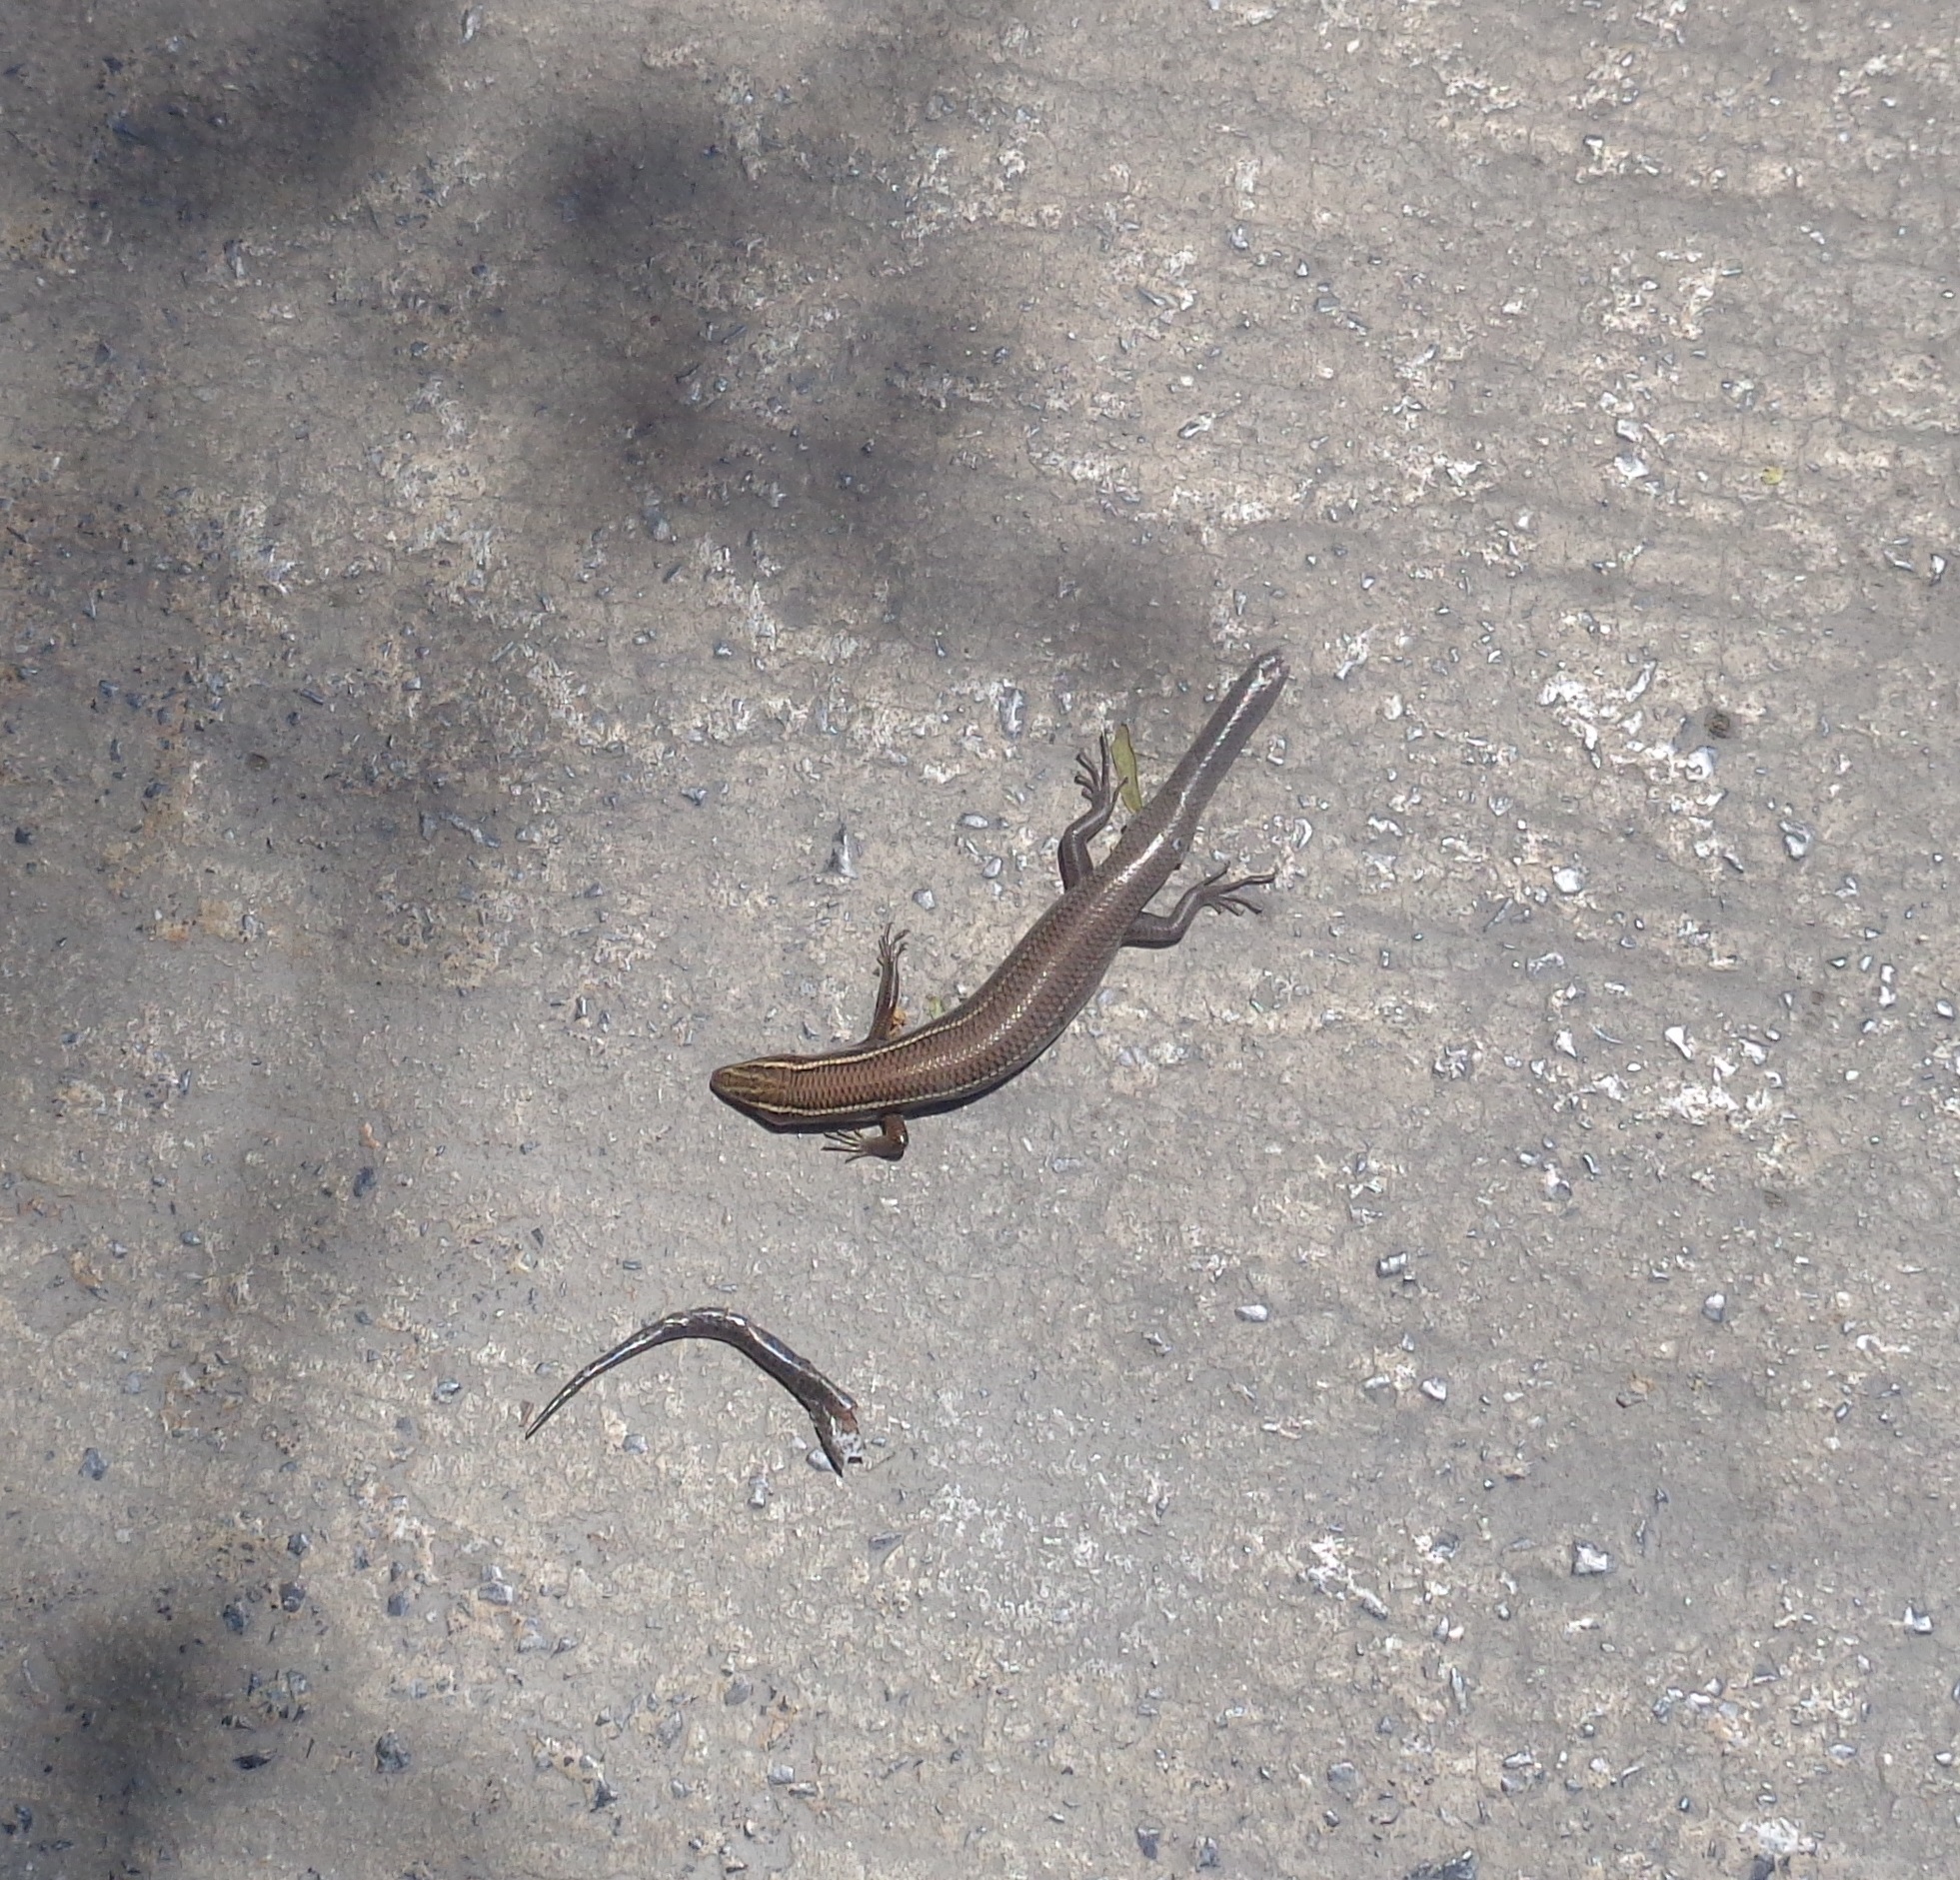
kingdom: Animalia
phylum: Chordata
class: Squamata
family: Scincidae
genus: Plestiodon
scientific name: Plestiodon tetragrammus
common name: Four-lined skink
